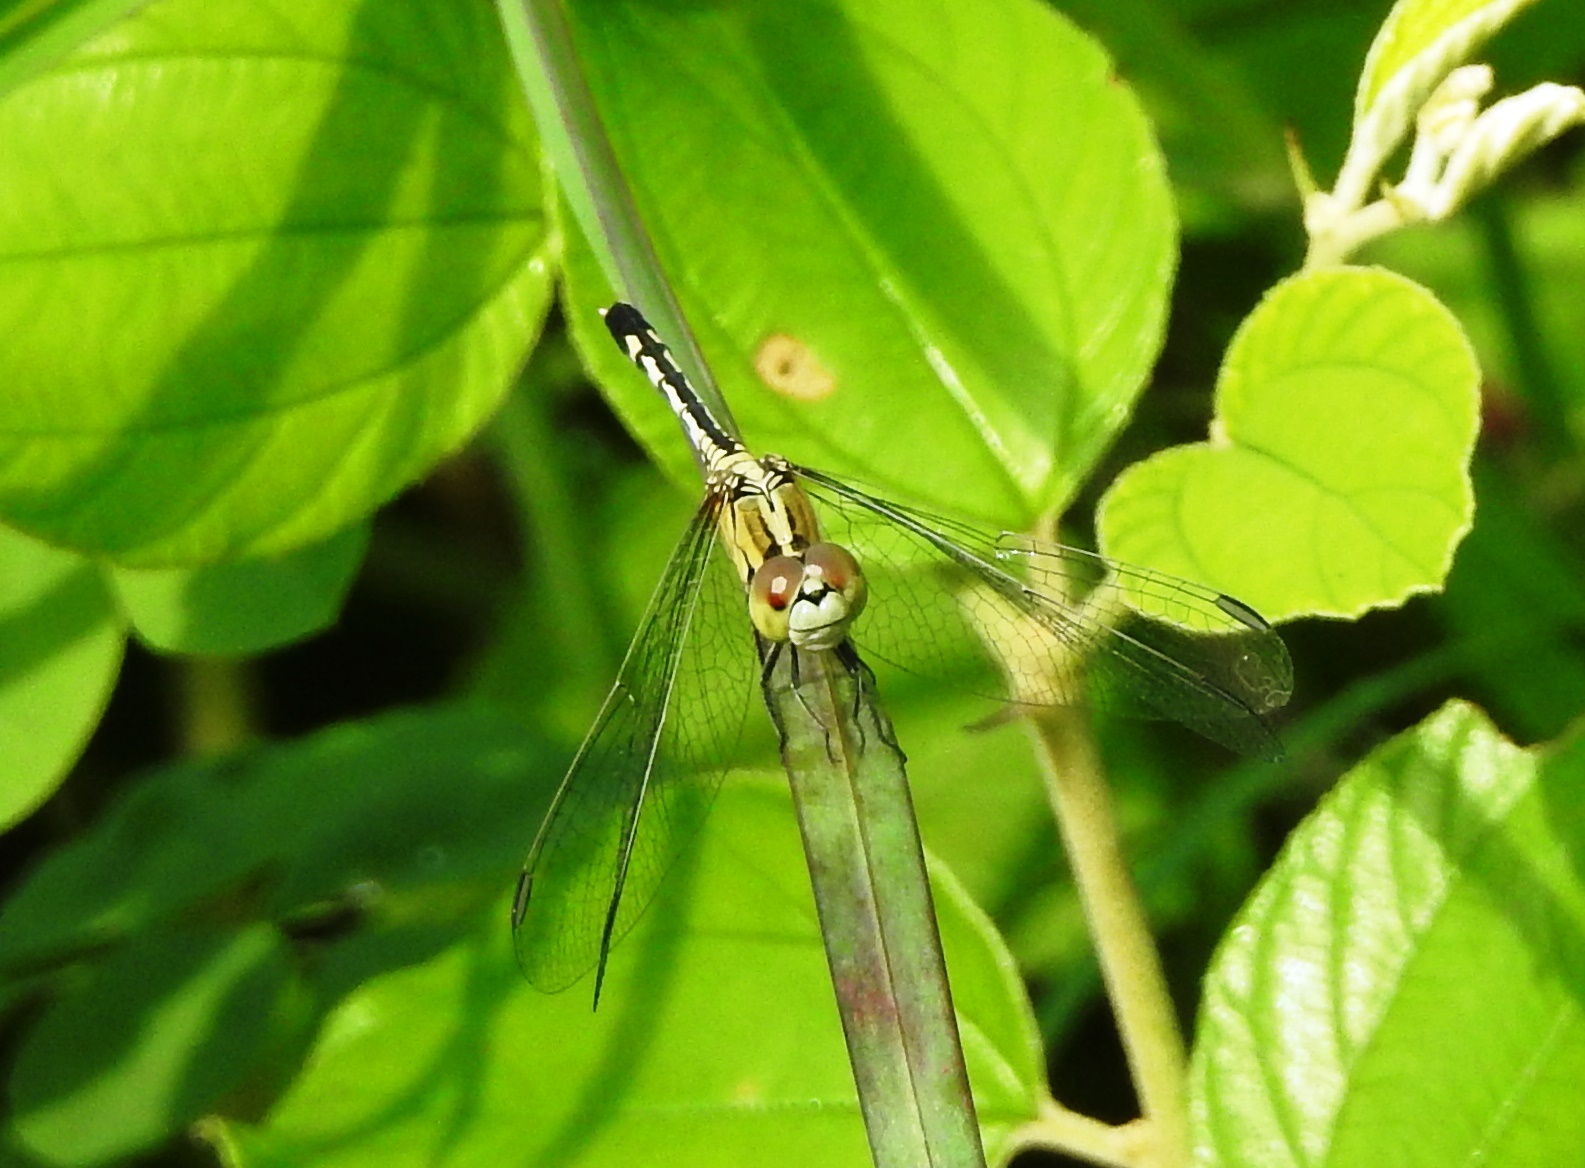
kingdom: Animalia
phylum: Arthropoda
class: Insecta
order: Odonata
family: Libellulidae
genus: Diplacodes
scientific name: Diplacodes trivialis
